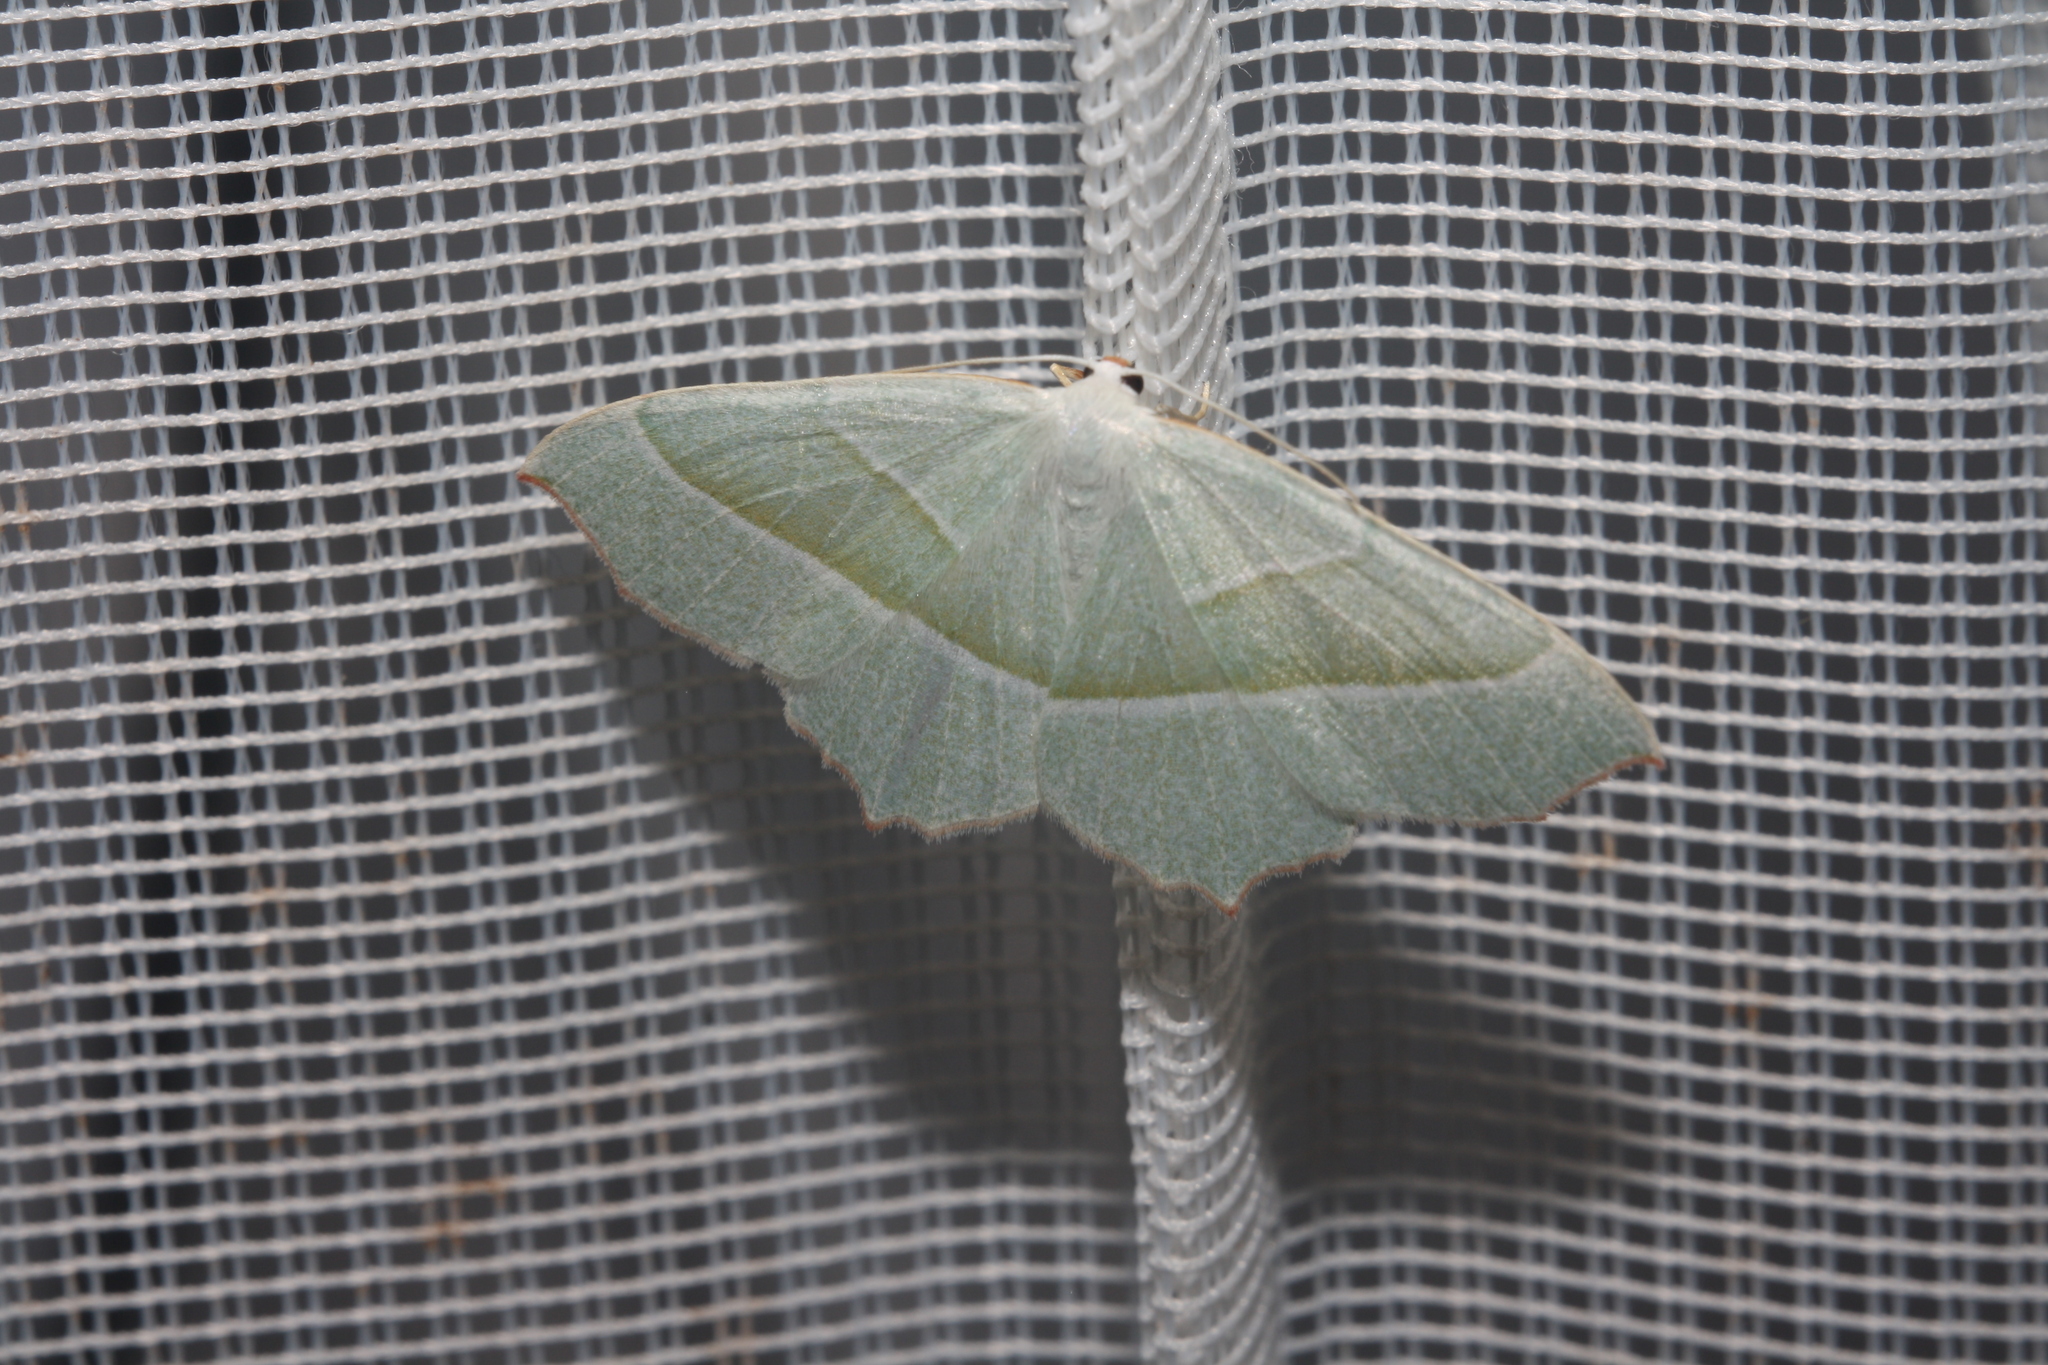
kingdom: Animalia
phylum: Arthropoda
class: Insecta
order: Lepidoptera
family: Geometridae
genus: Campaea
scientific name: Campaea margaritaria
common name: Light emerald
